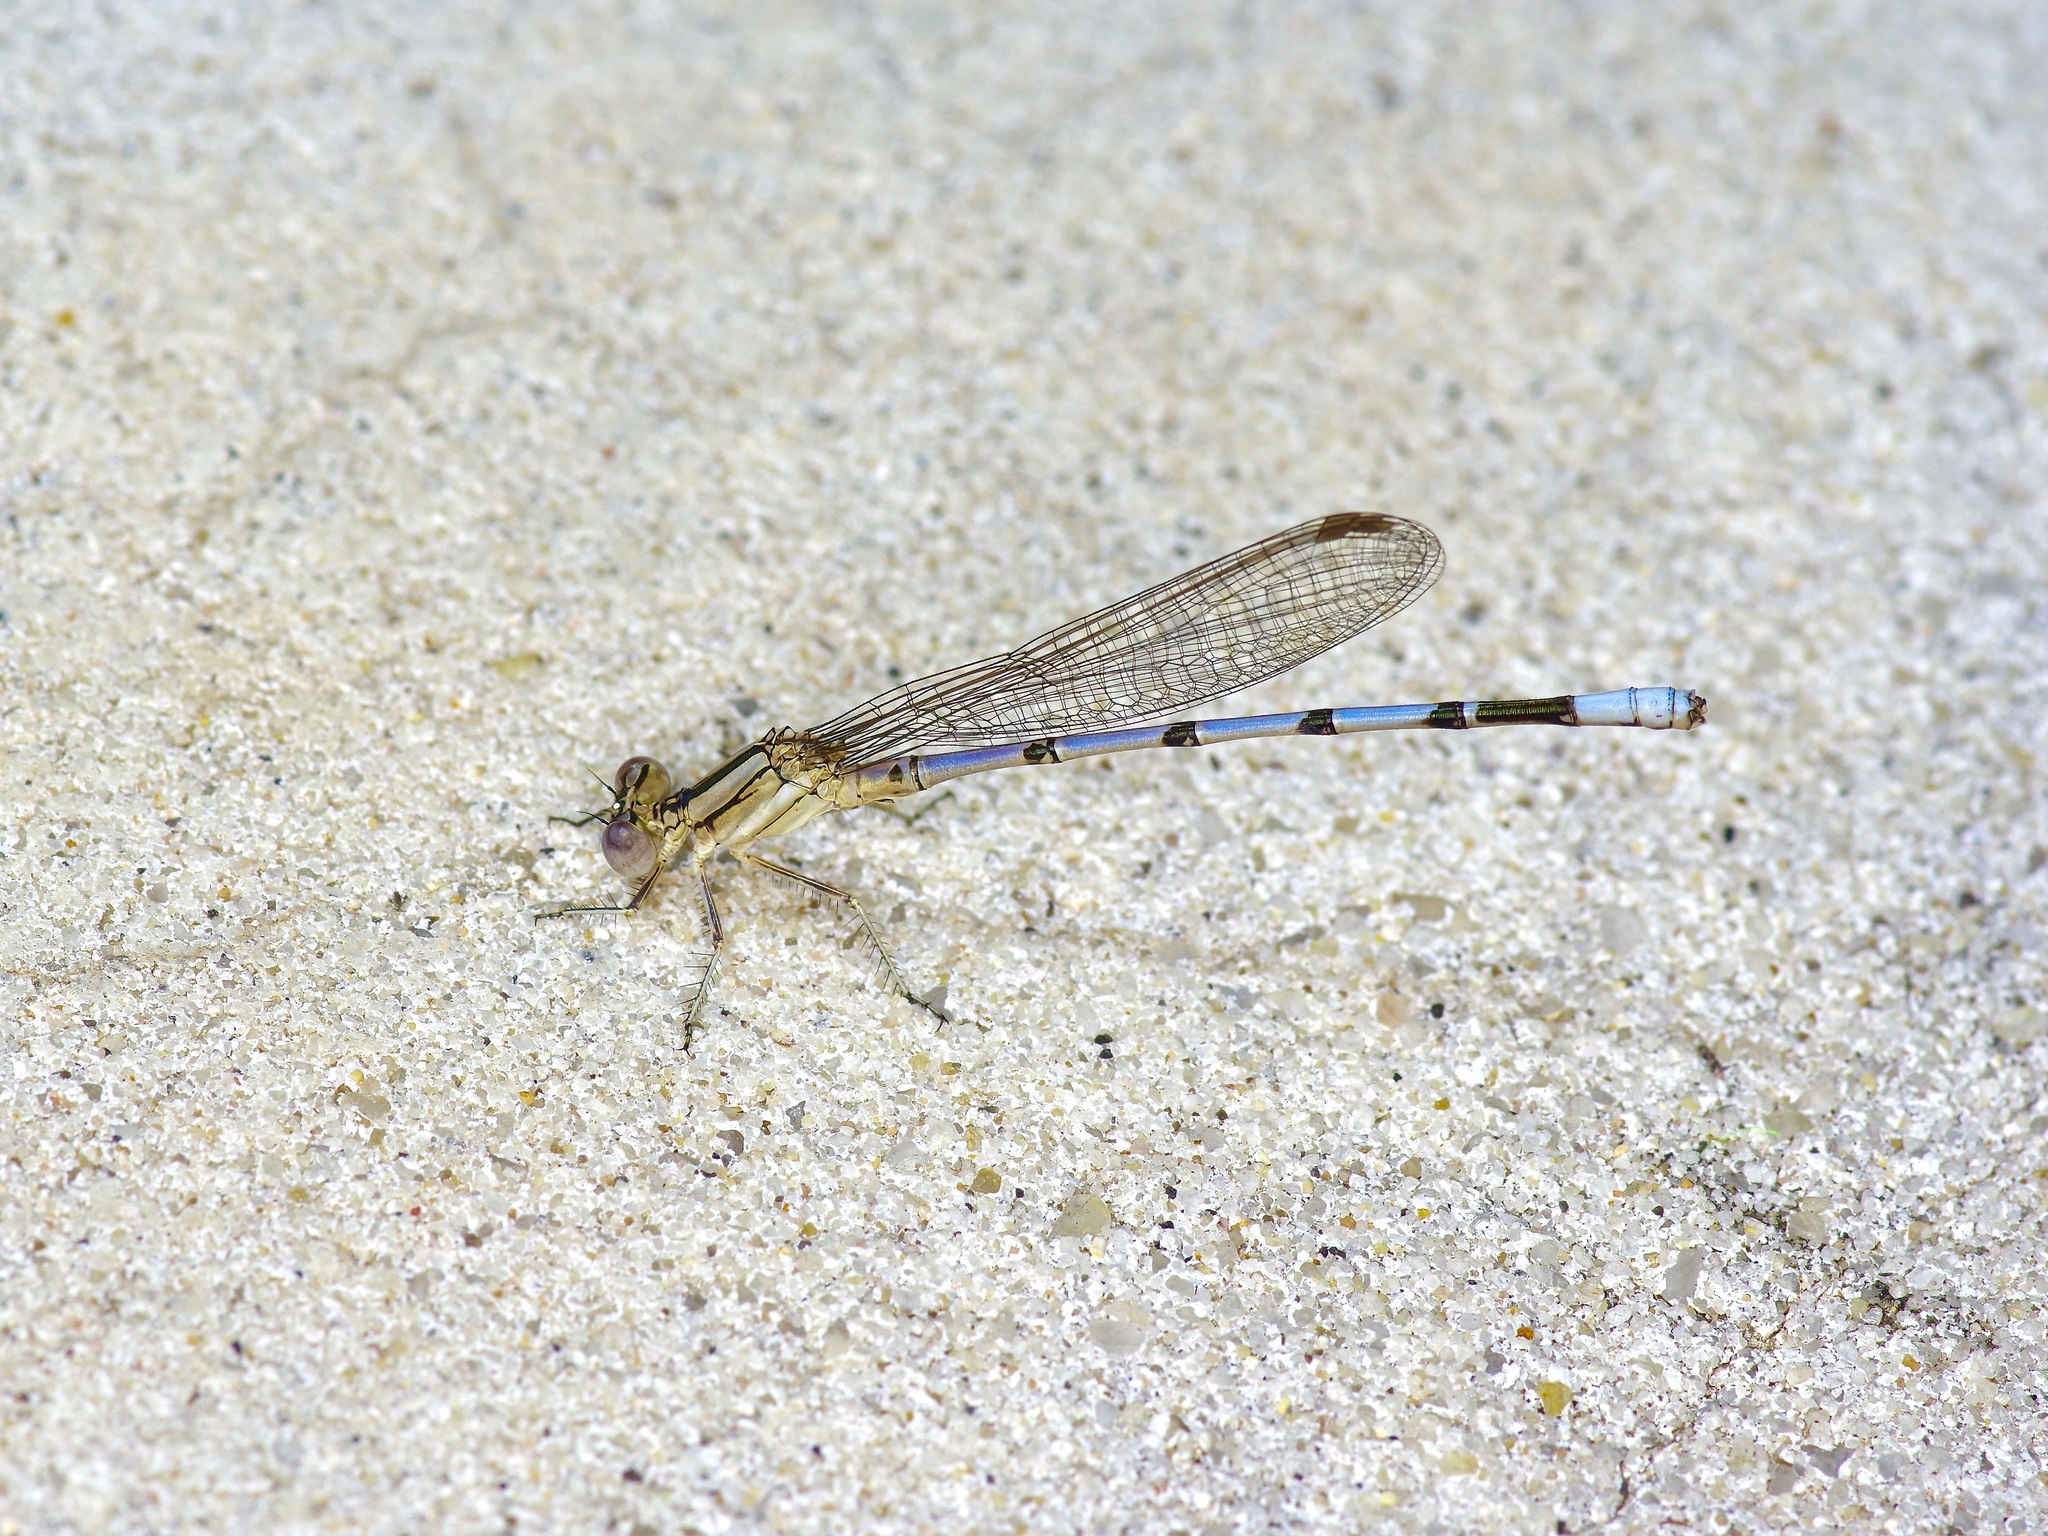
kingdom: Animalia
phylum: Arthropoda
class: Insecta
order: Odonata
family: Coenagrionidae
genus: Argia
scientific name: Argia nahuana
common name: Aztec dancer
